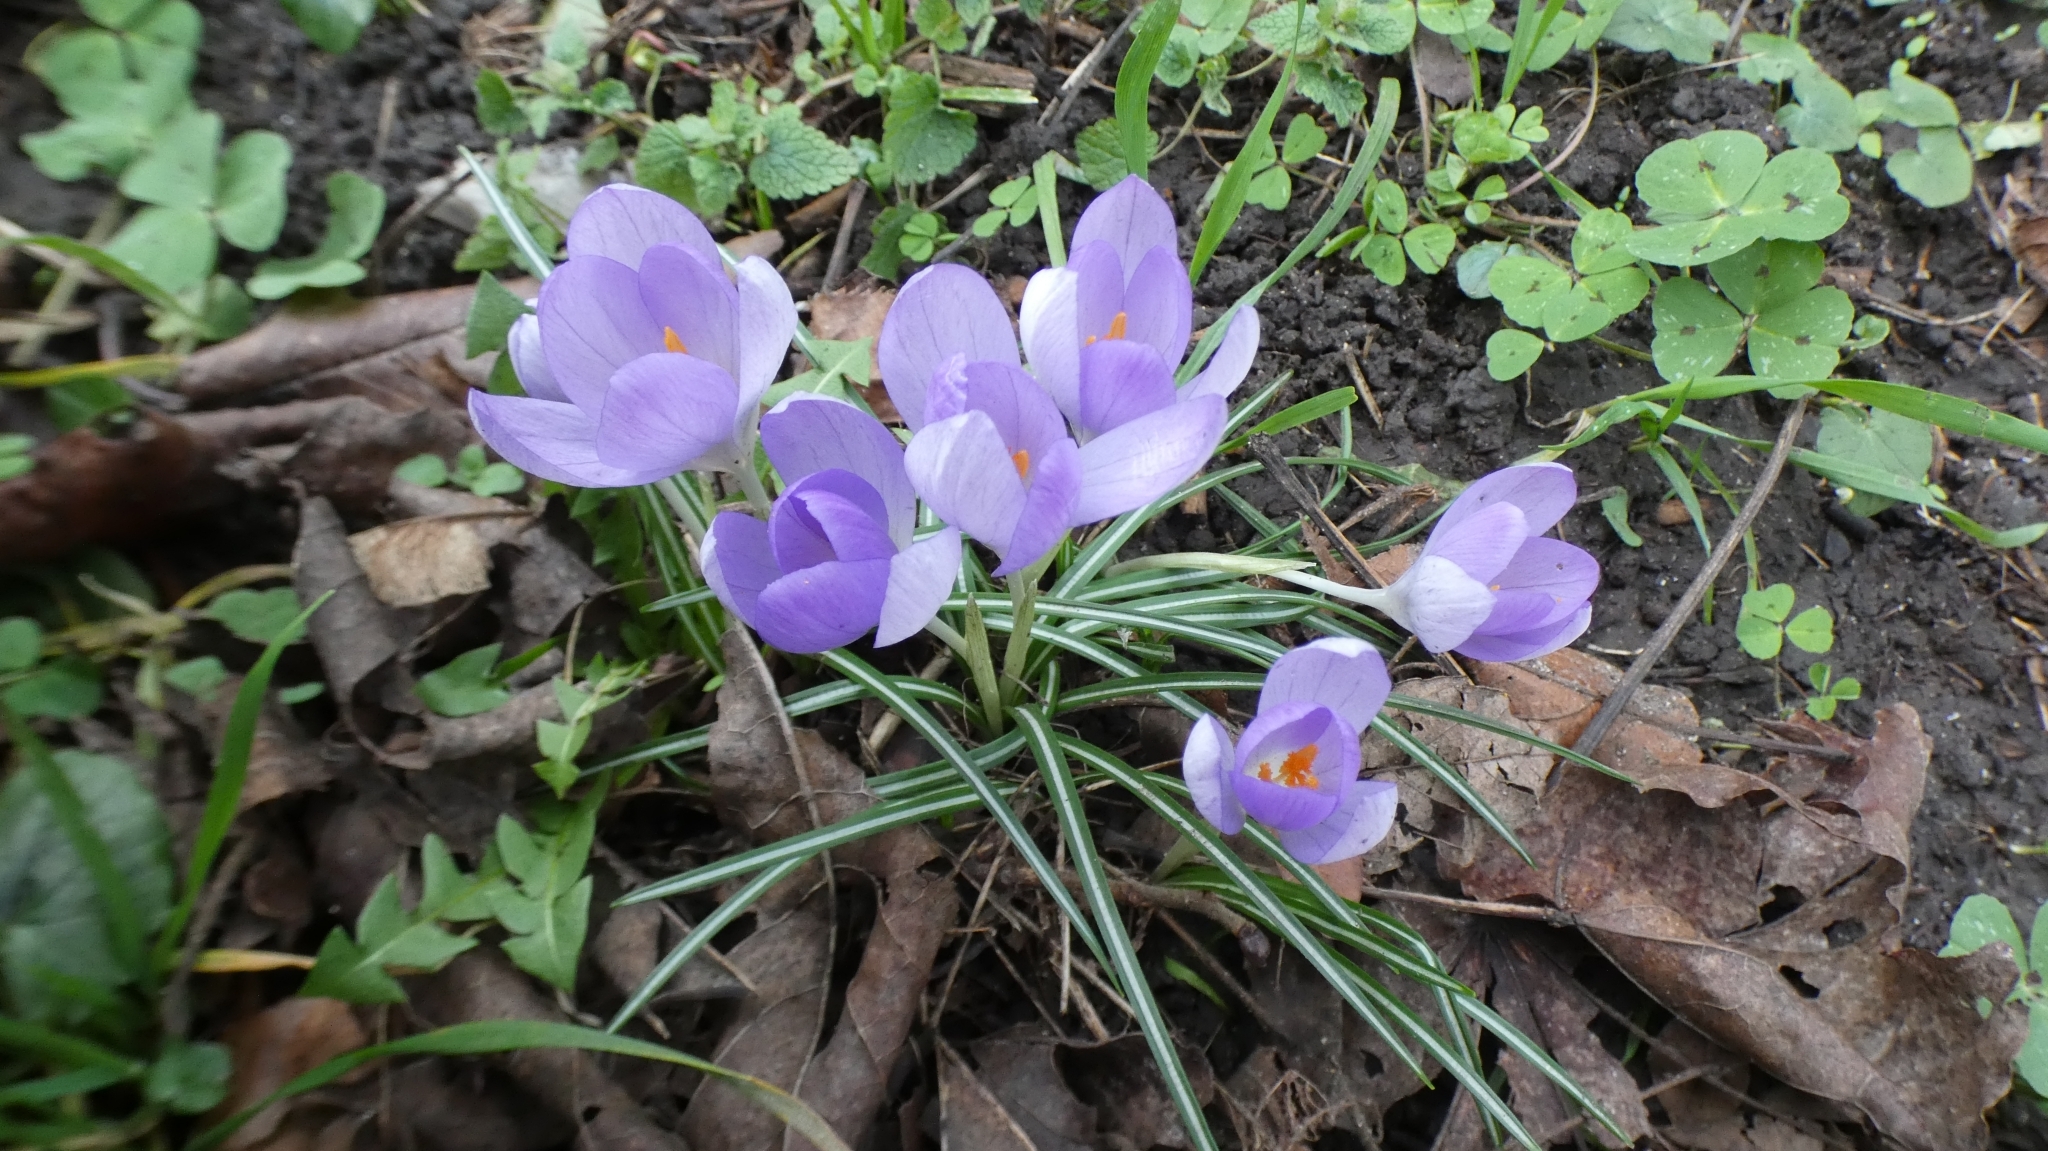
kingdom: Plantae
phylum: Tracheophyta
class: Liliopsida
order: Asparagales
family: Iridaceae
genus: Crocus
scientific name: Crocus tommasinianus
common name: Early crocus
